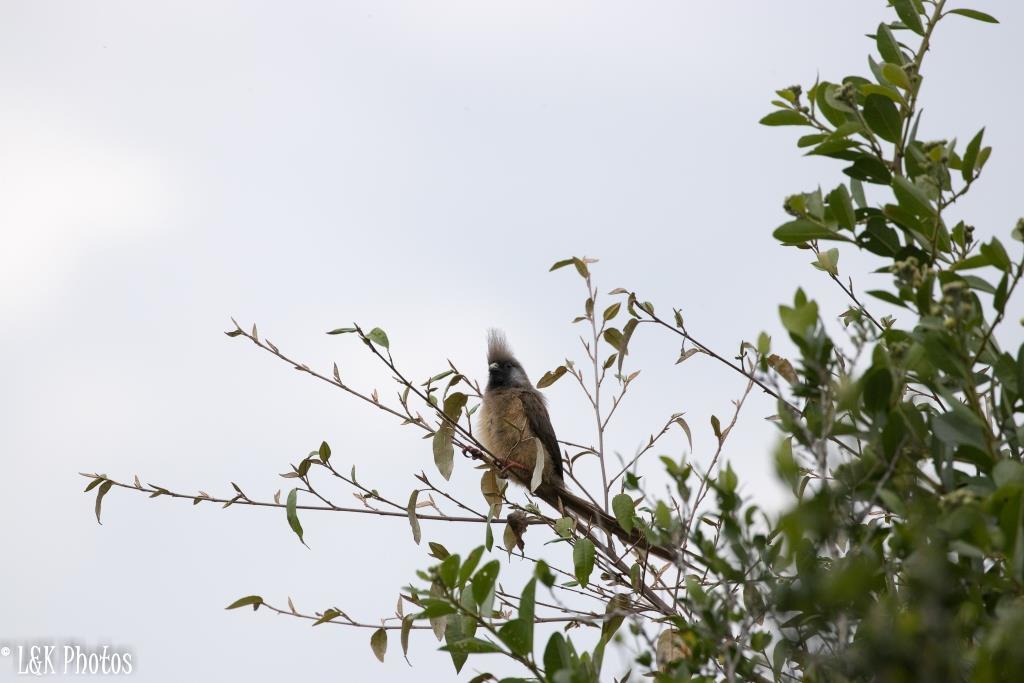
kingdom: Animalia
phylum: Chordata
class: Aves
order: Coliiformes
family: Coliidae
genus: Colius
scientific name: Colius striatus
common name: Speckled mousebird
